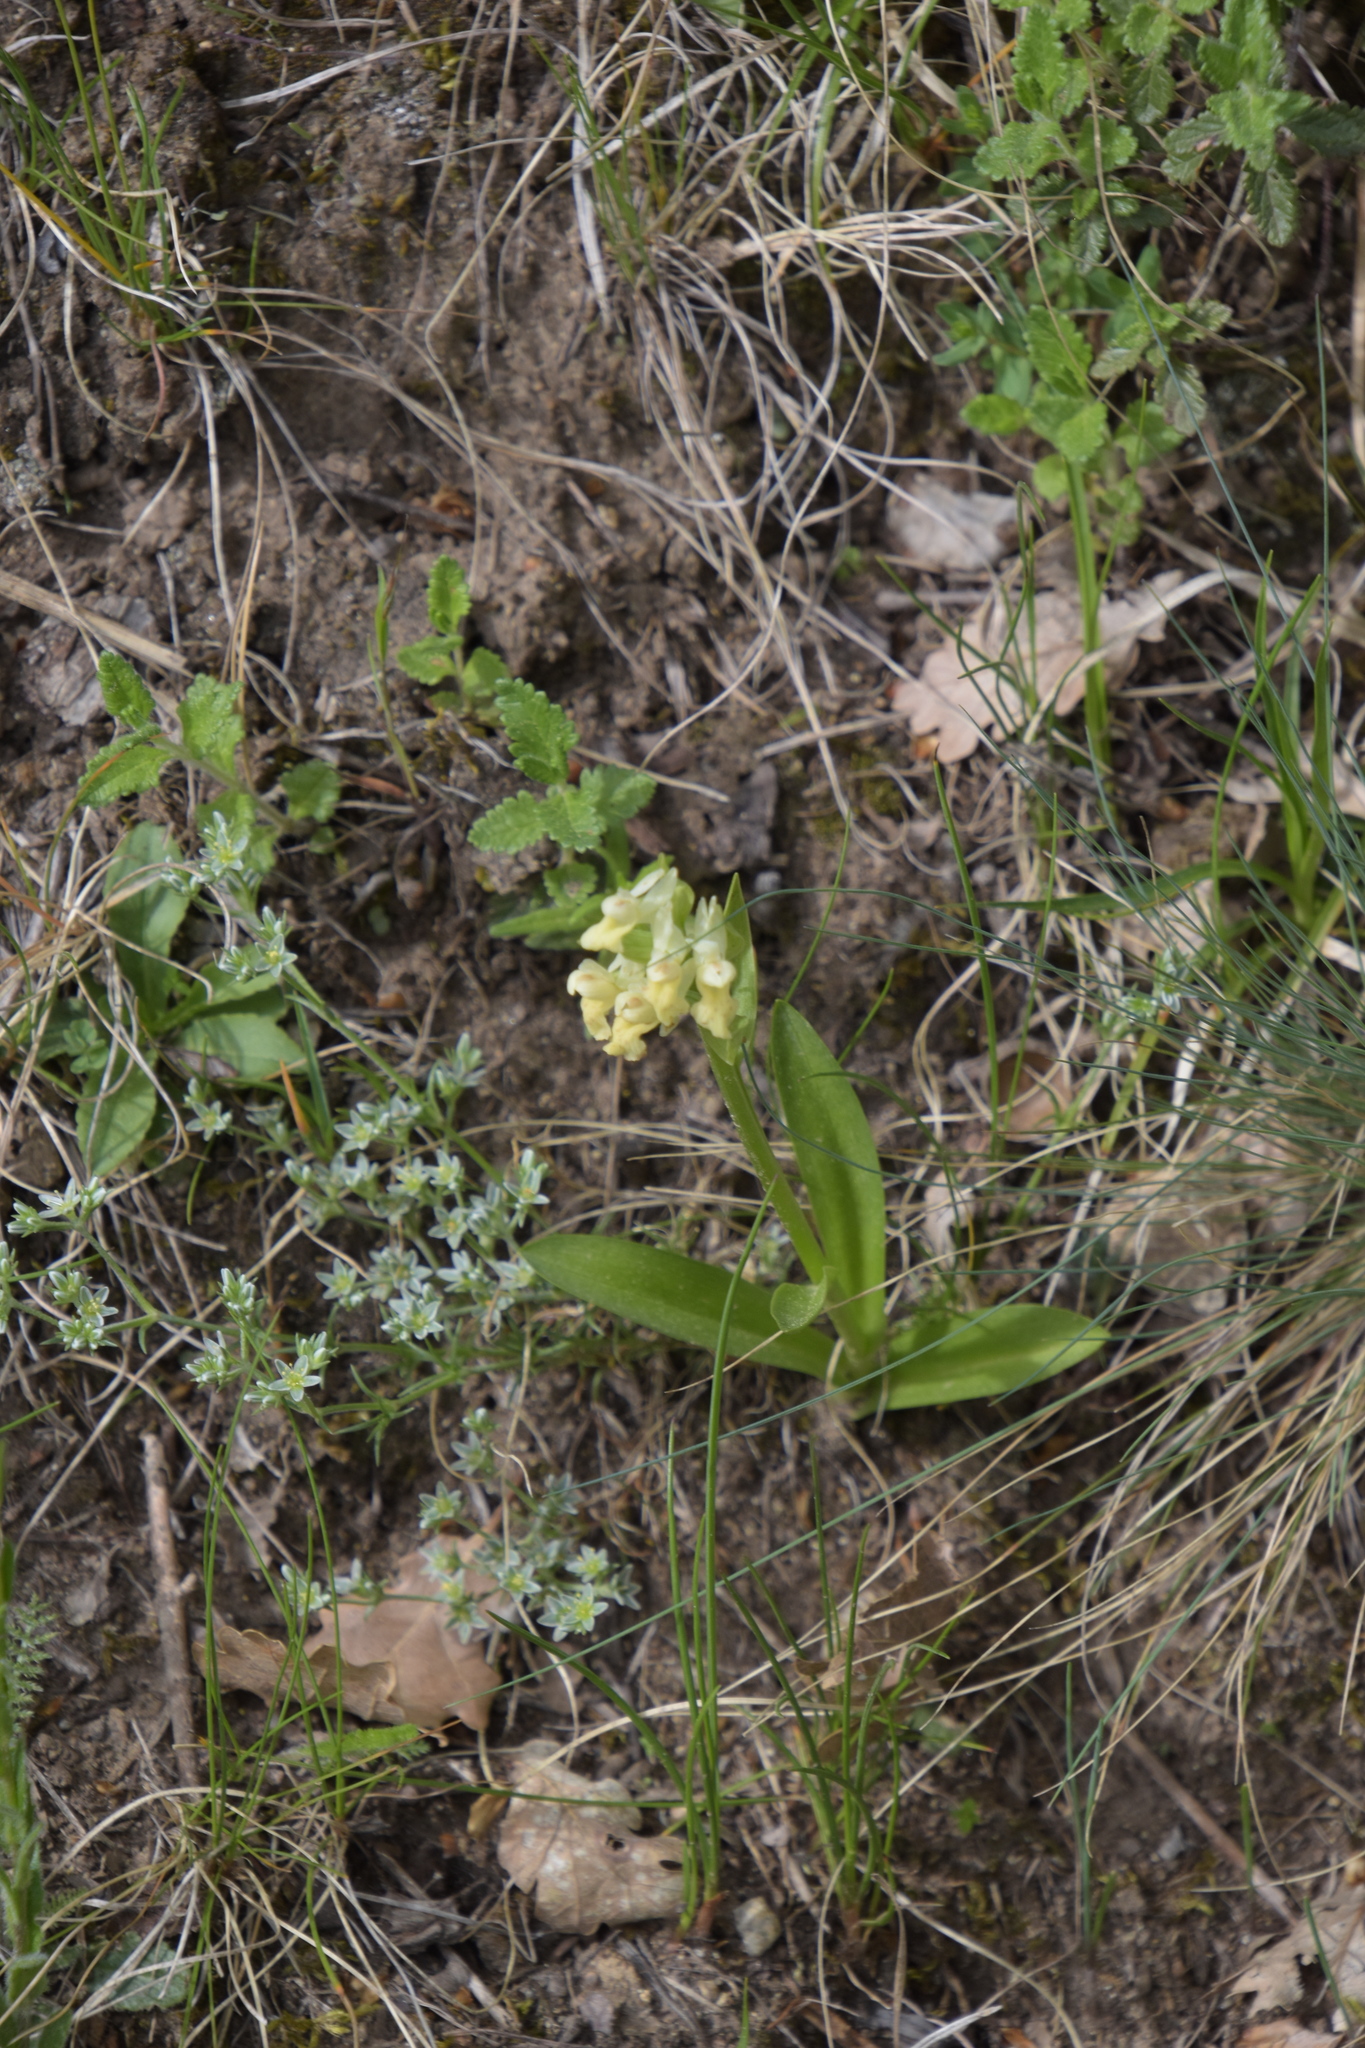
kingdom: Plantae
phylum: Tracheophyta
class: Liliopsida
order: Asparagales
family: Orchidaceae
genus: Orchis
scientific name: Orchis pallens
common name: Pale-flowered orchid
